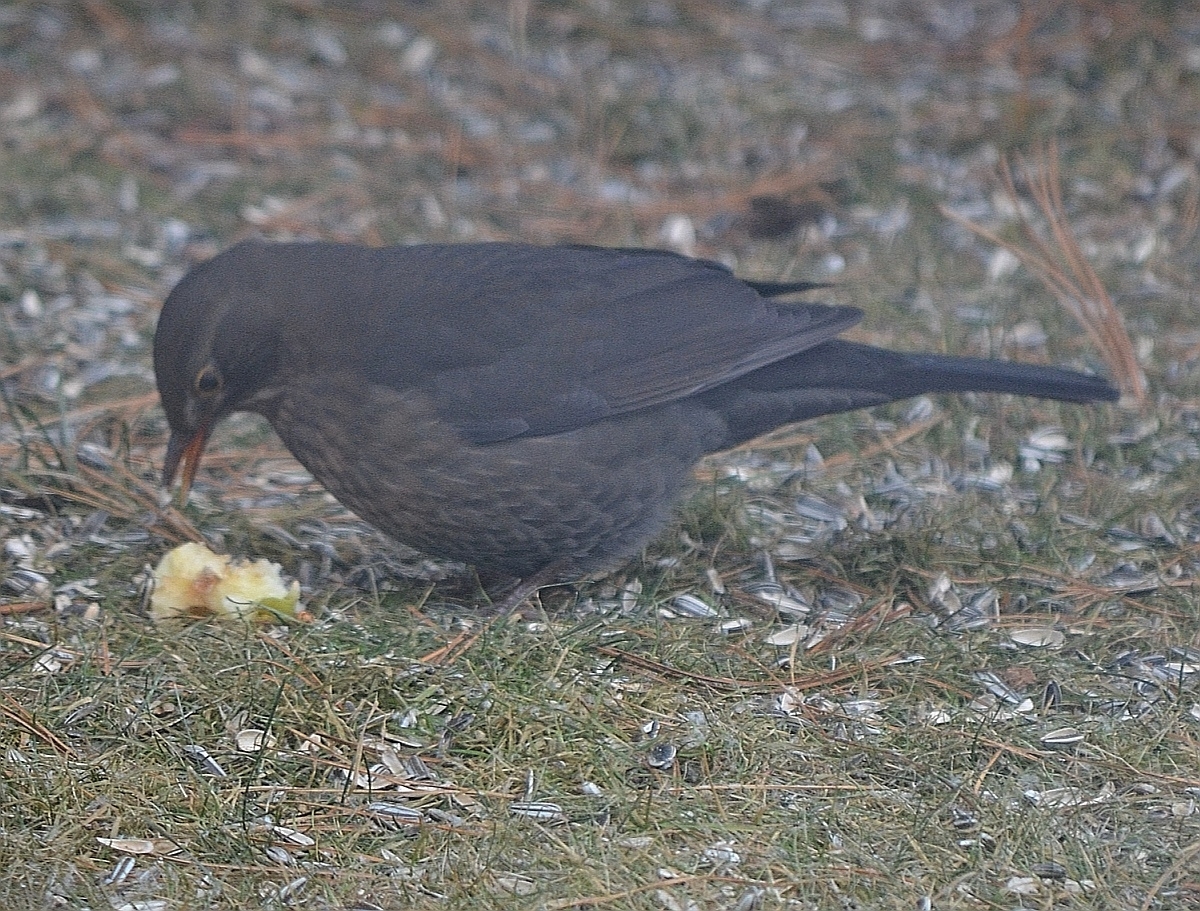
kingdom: Animalia
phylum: Chordata
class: Aves
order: Passeriformes
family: Turdidae
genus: Turdus
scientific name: Turdus merula
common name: Common blackbird
